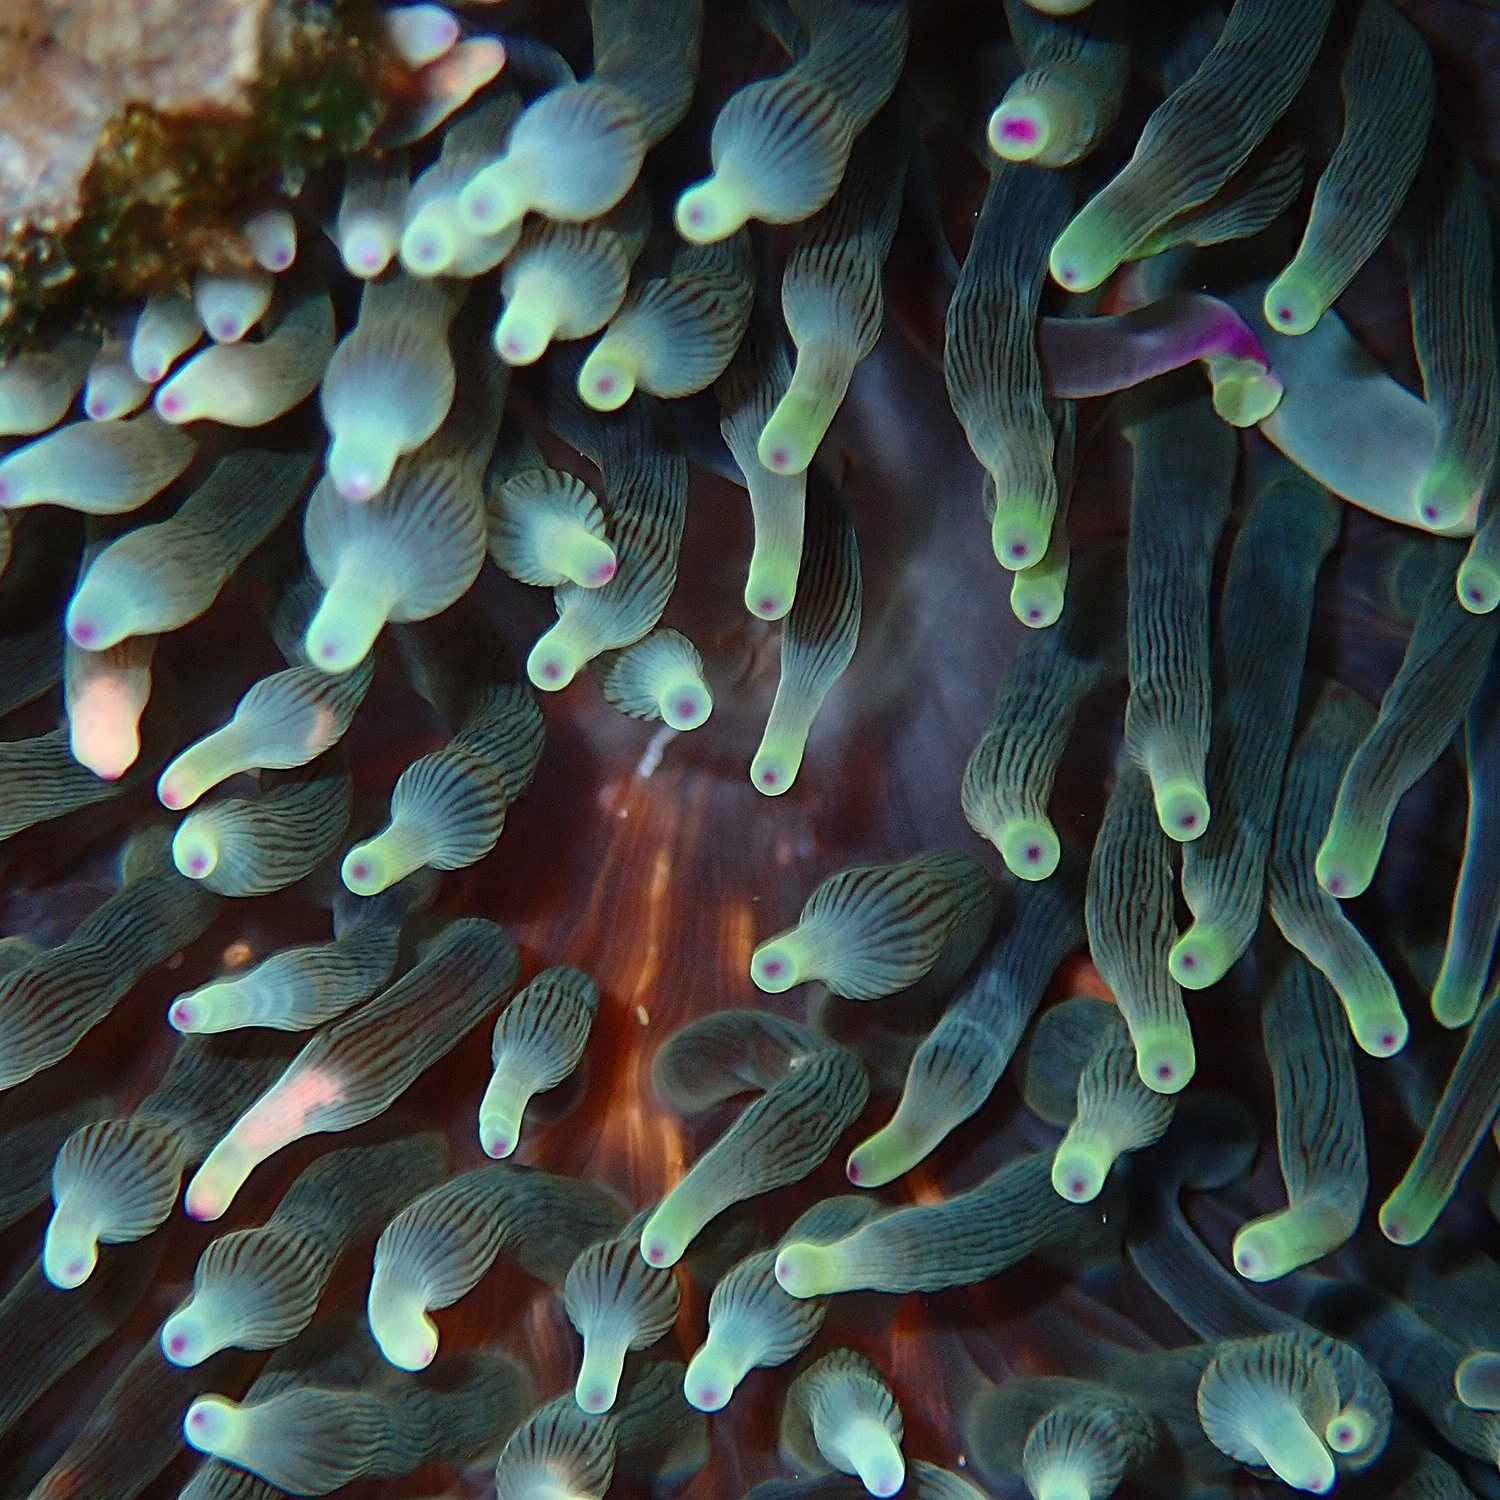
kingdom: Animalia
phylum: Cnidaria
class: Anthozoa
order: Actiniaria
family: Actiniidae
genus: Entacmaea
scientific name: Entacmaea quadricolor
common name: Bulb tentacle sea anemone
